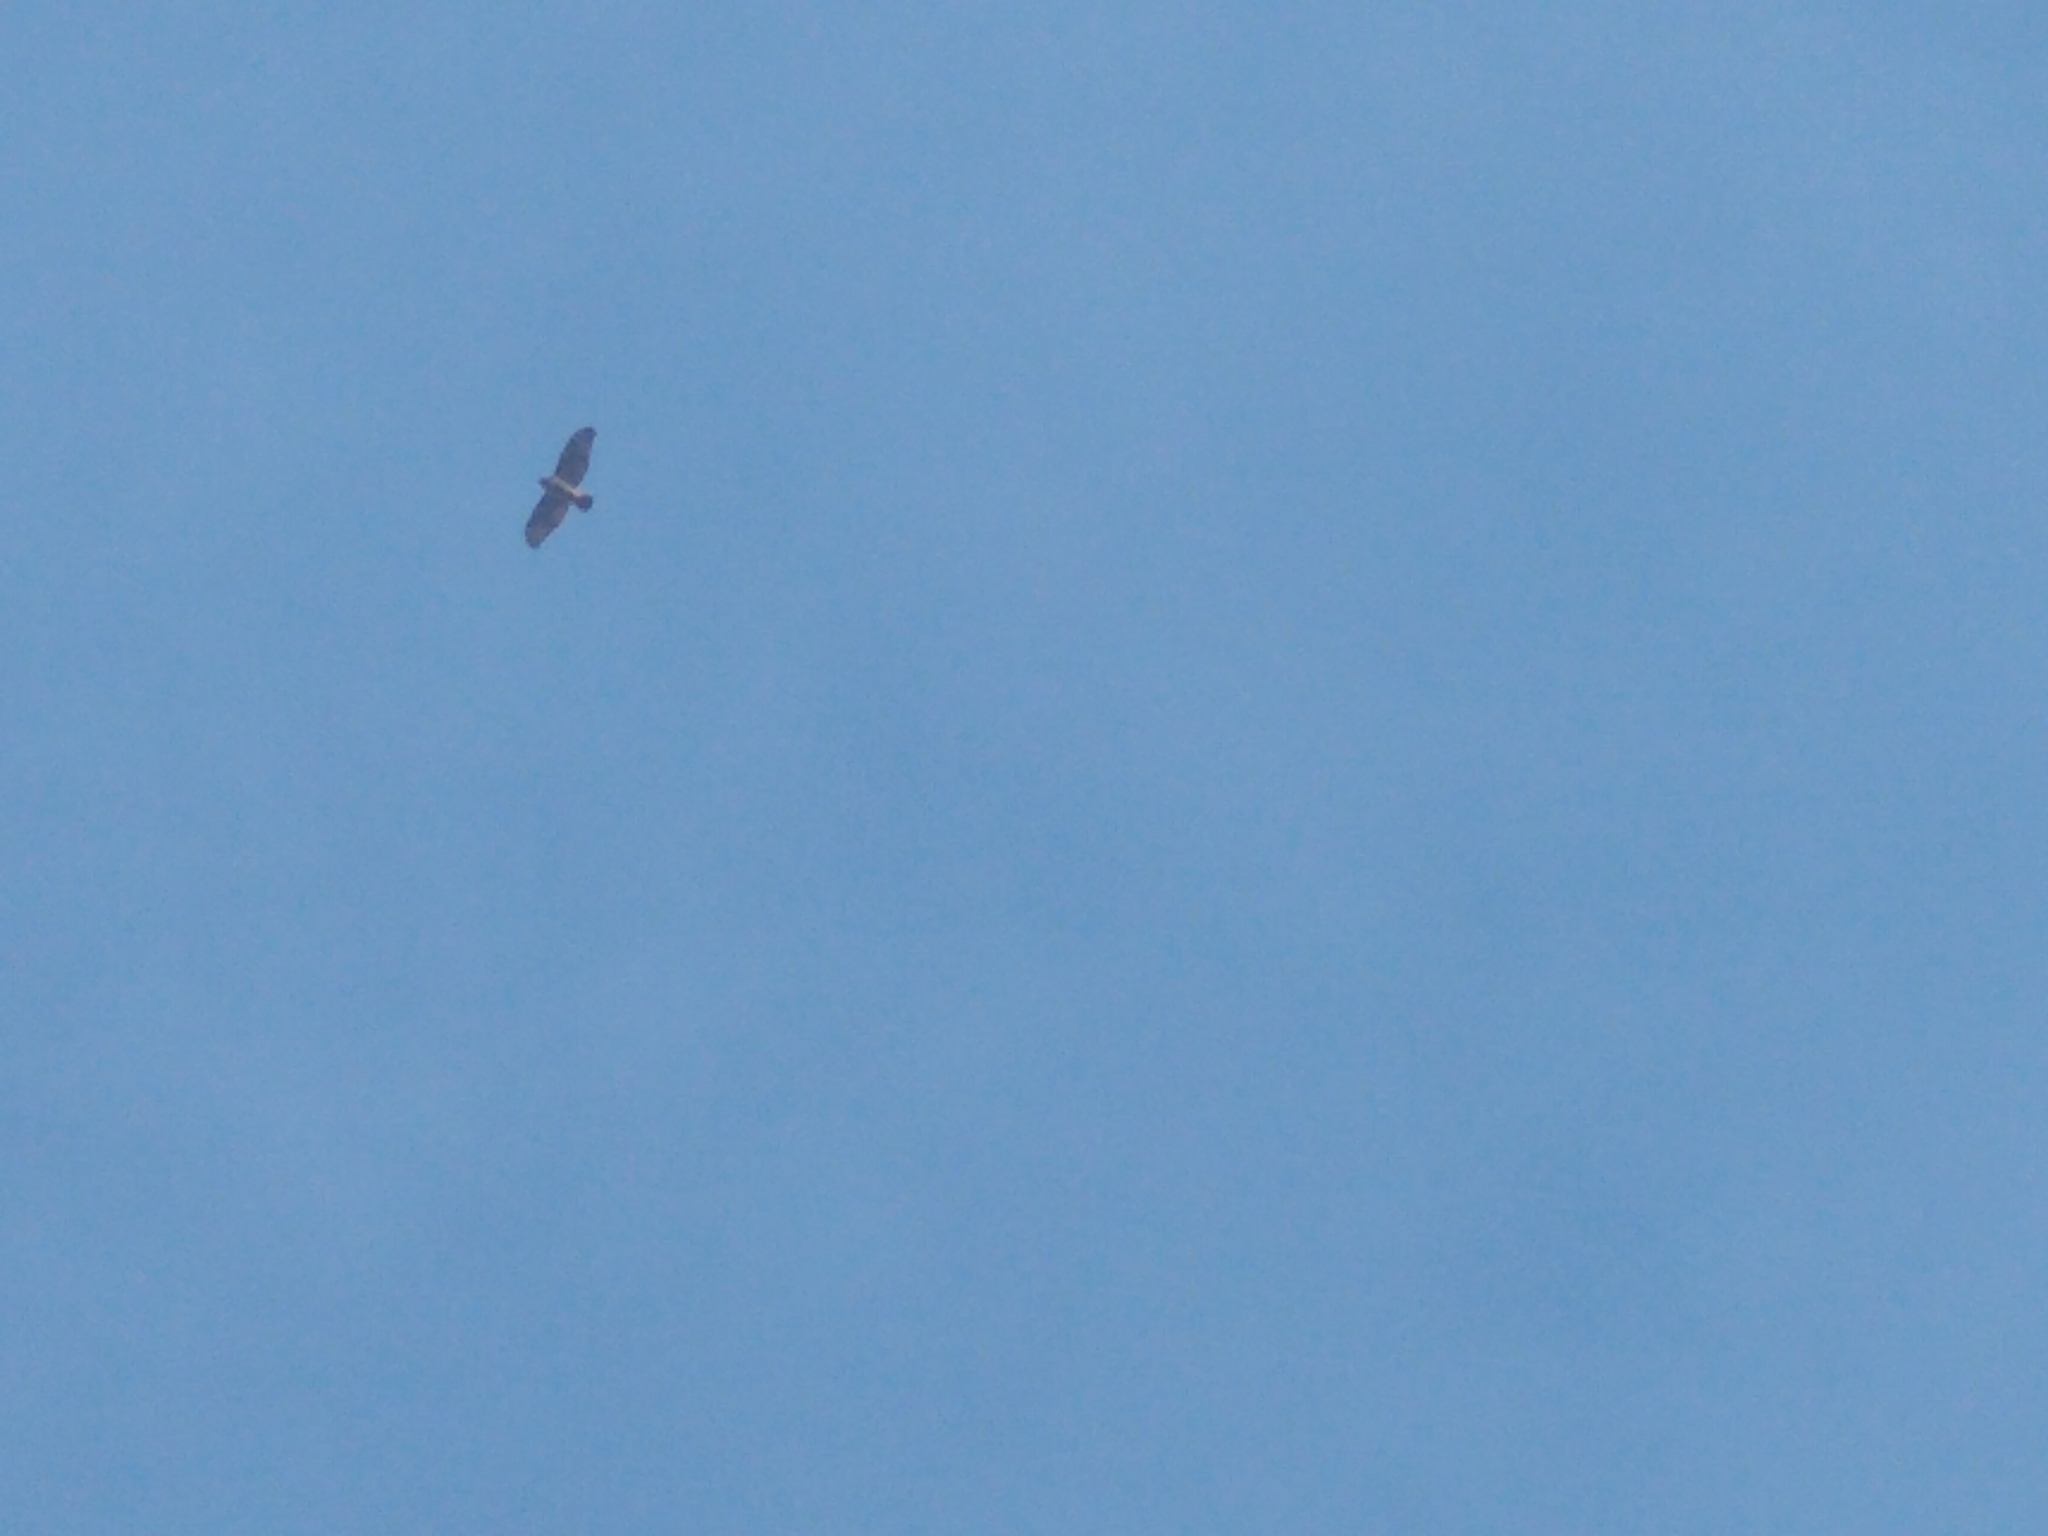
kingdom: Animalia
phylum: Chordata
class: Aves
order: Accipitriformes
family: Accipitridae
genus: Buteo
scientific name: Buteo jamaicensis
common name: Red-tailed hawk
